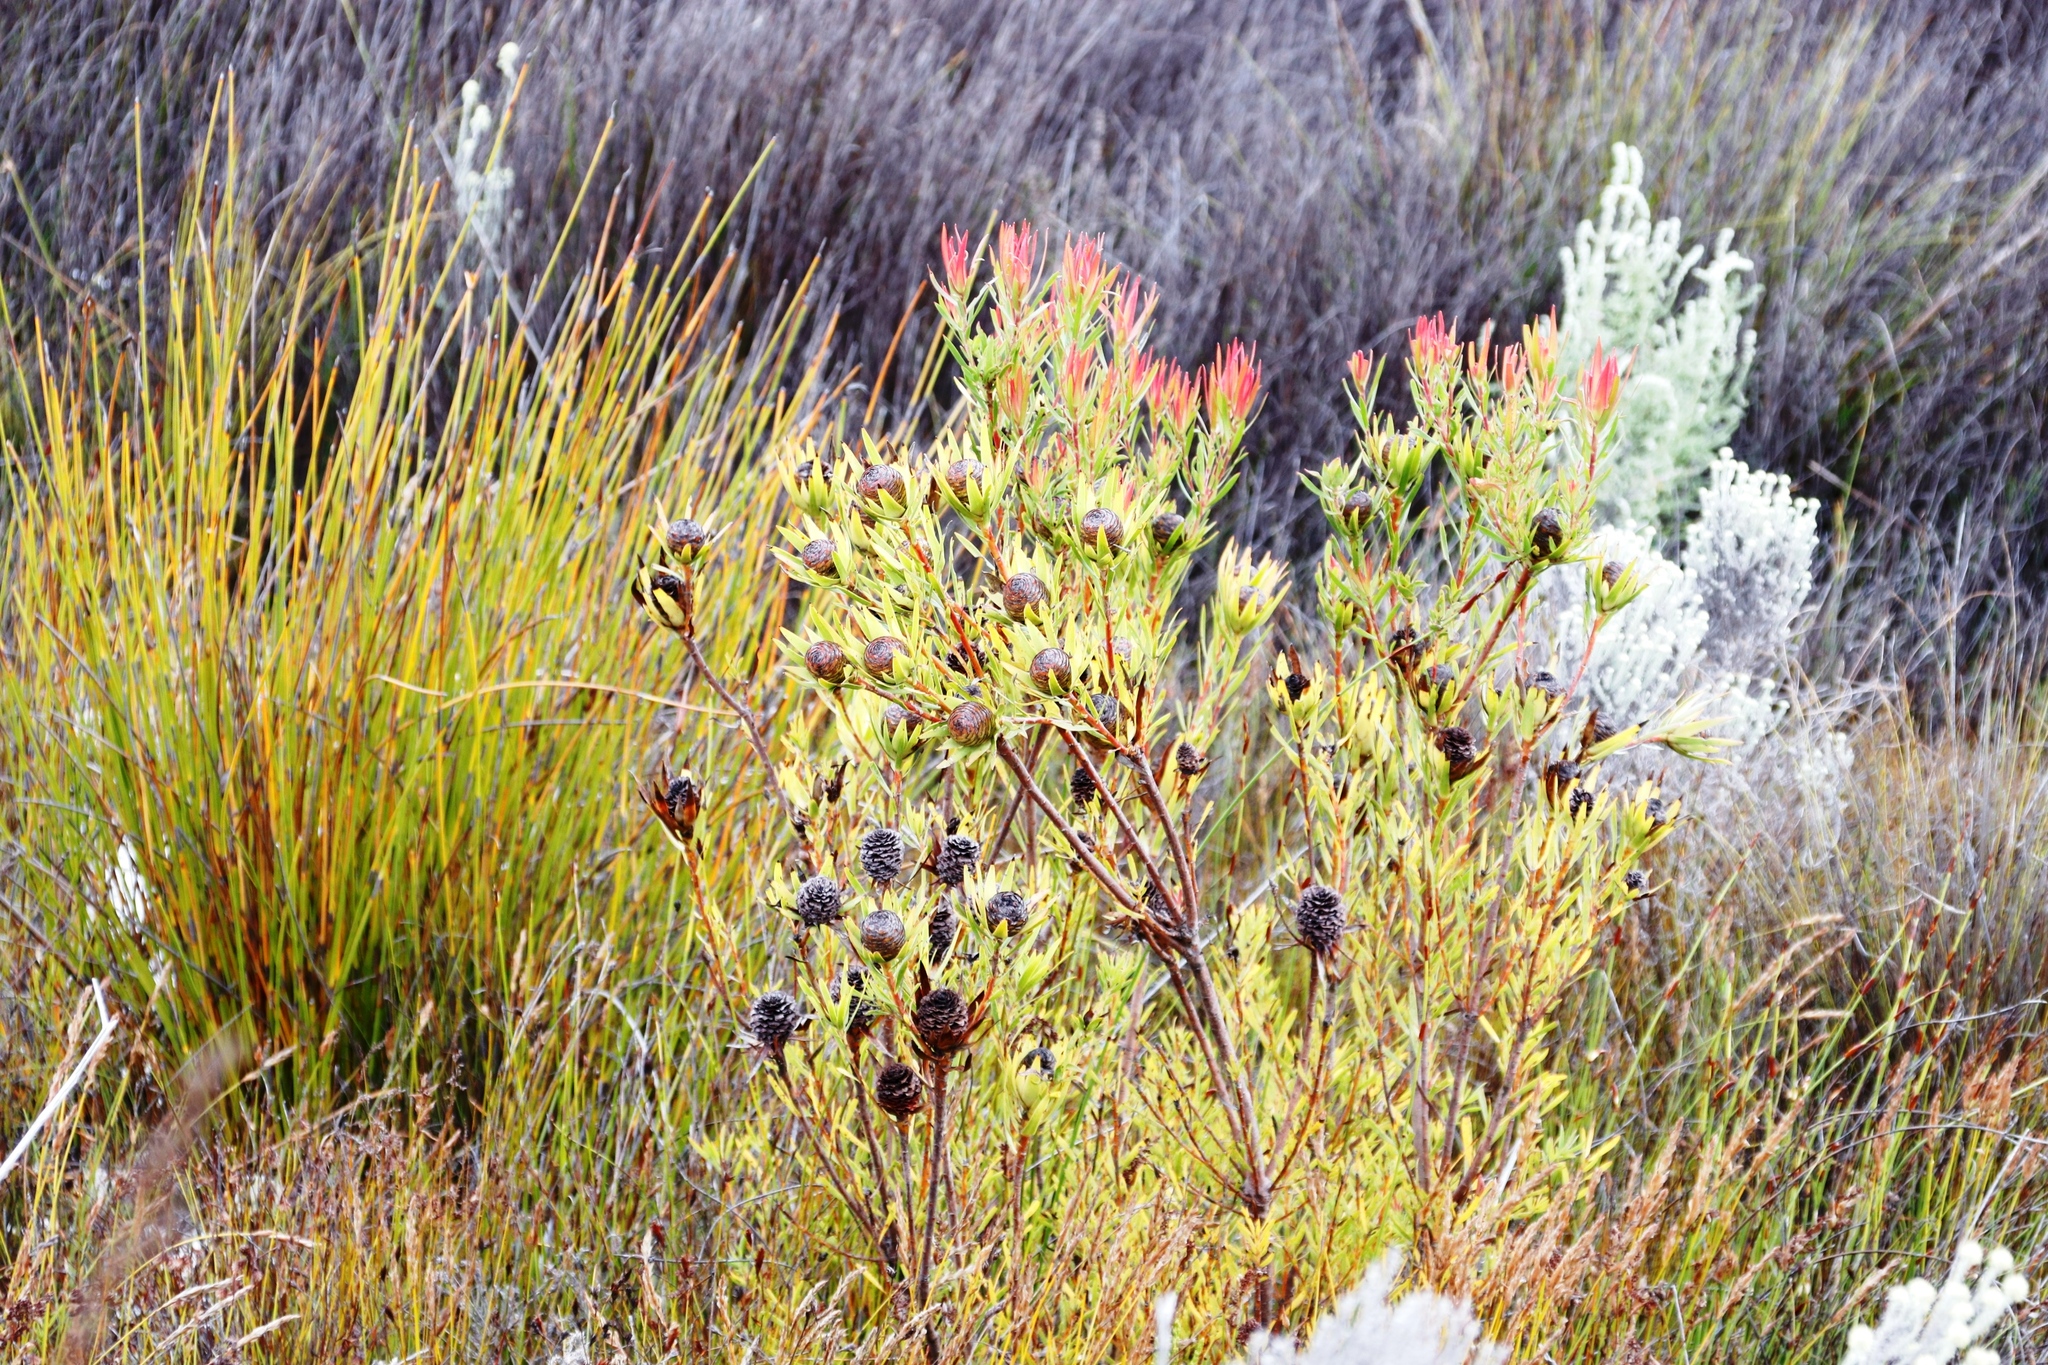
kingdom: Plantae
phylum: Tracheophyta
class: Magnoliopsida
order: Proteales
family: Proteaceae
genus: Leucadendron
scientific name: Leucadendron spissifolium
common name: Spear-leaf conebush
